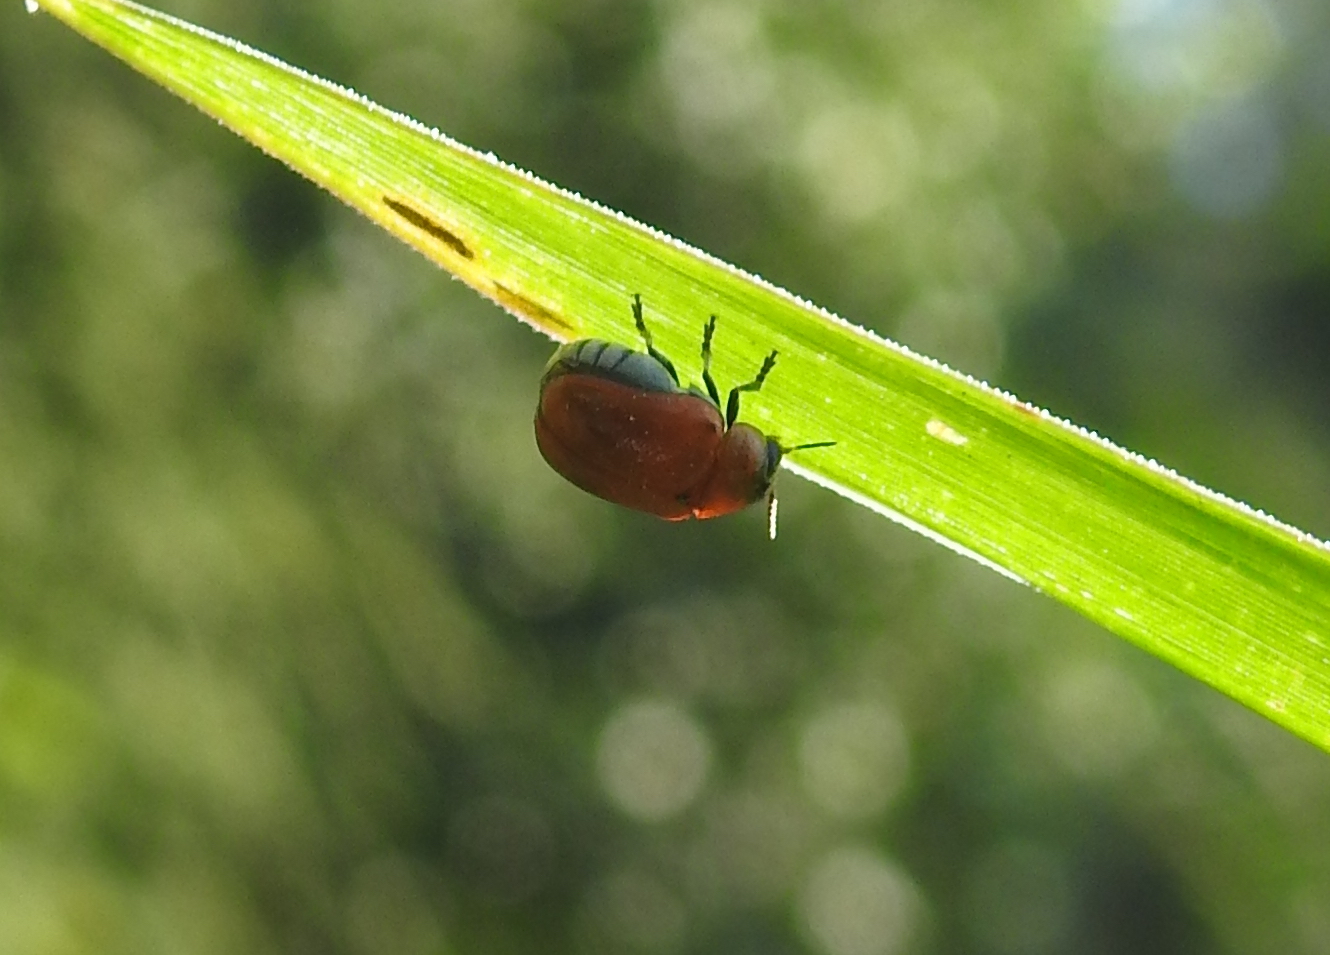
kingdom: Animalia
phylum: Arthropoda
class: Insecta
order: Coleoptera
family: Chrysomelidae
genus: Aspidolopha
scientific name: Aspidolopha
